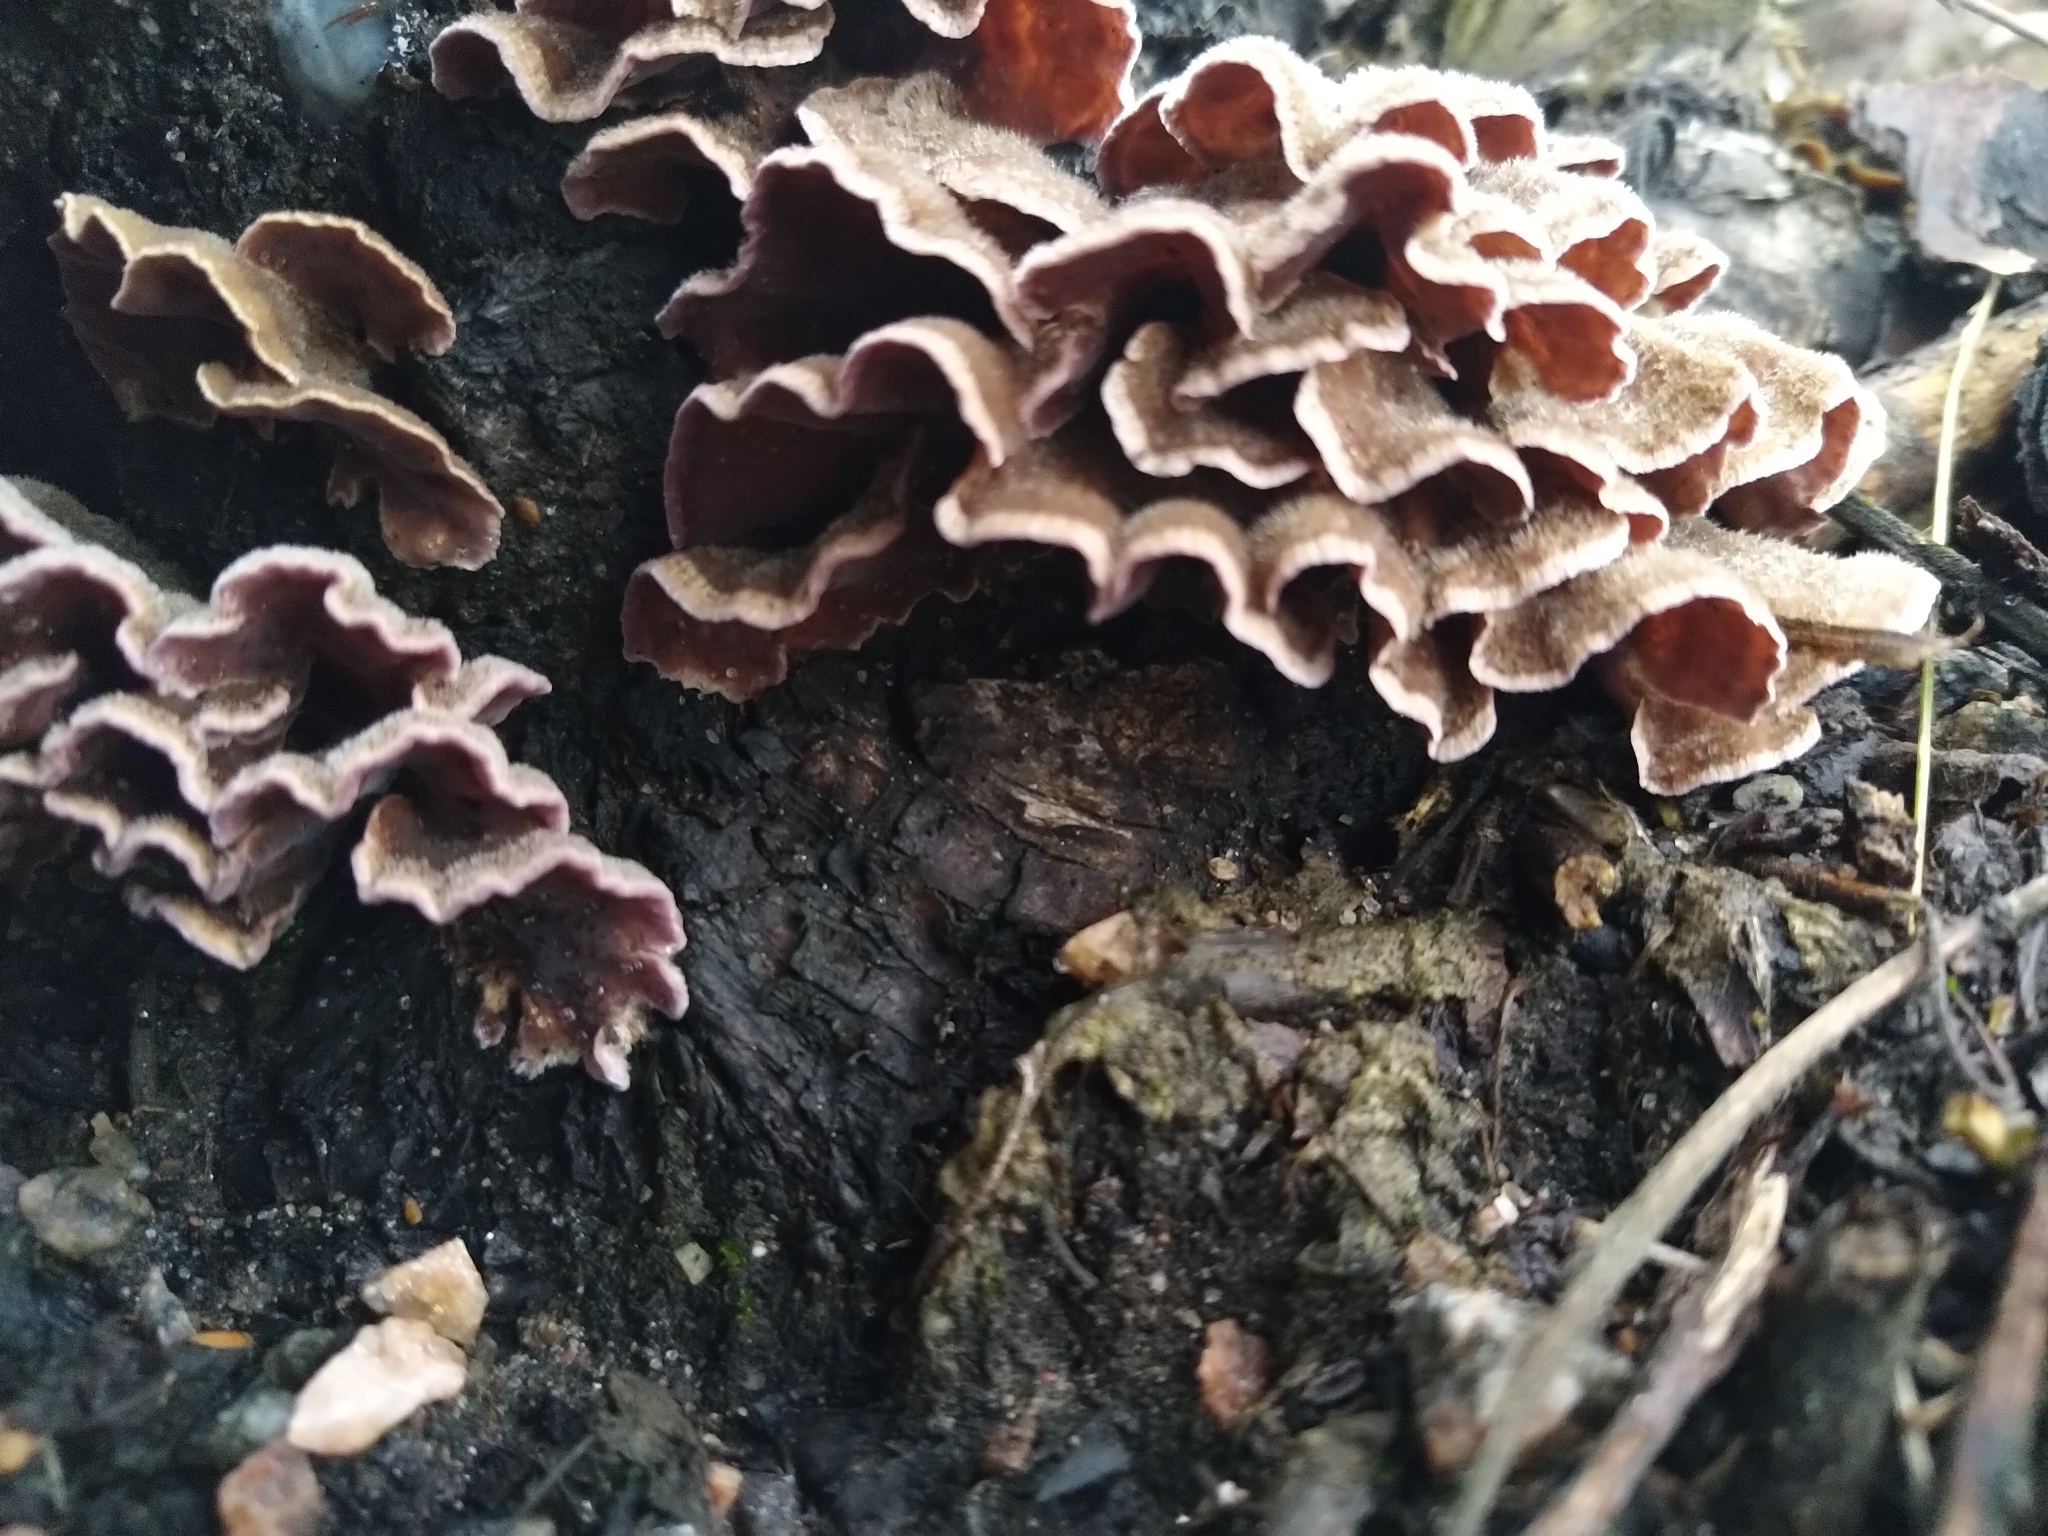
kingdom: Fungi
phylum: Basidiomycota
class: Agaricomycetes
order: Agaricales
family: Cyphellaceae
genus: Chondrostereum
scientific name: Chondrostereum purpureum
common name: Silver leaf disease
